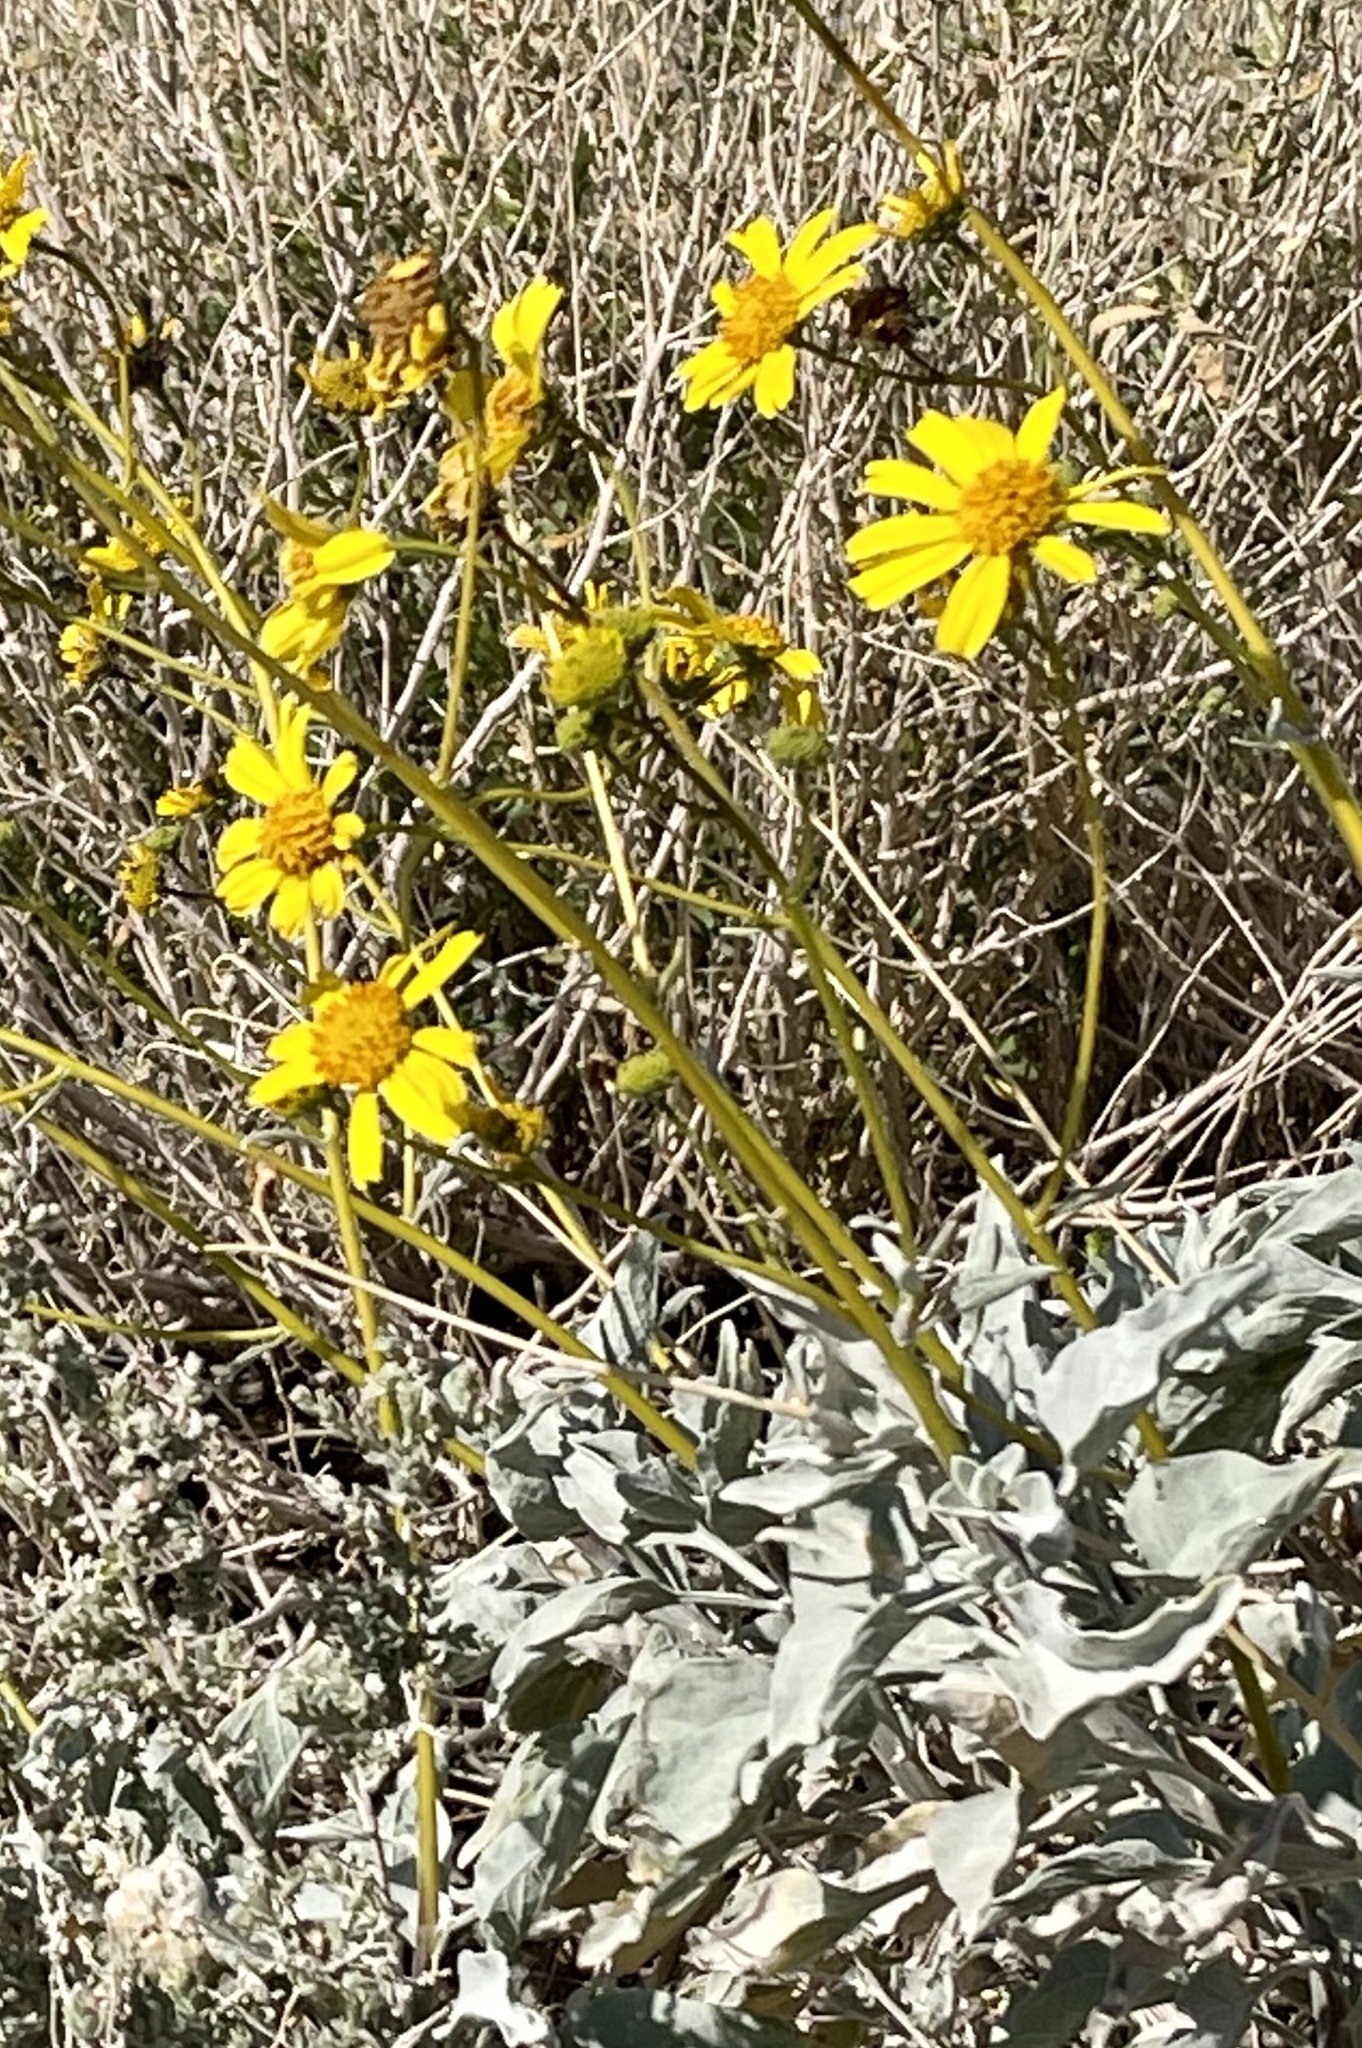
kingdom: Plantae
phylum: Tracheophyta
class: Magnoliopsida
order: Asterales
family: Asteraceae
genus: Encelia
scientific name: Encelia farinosa
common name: Brittlebush
